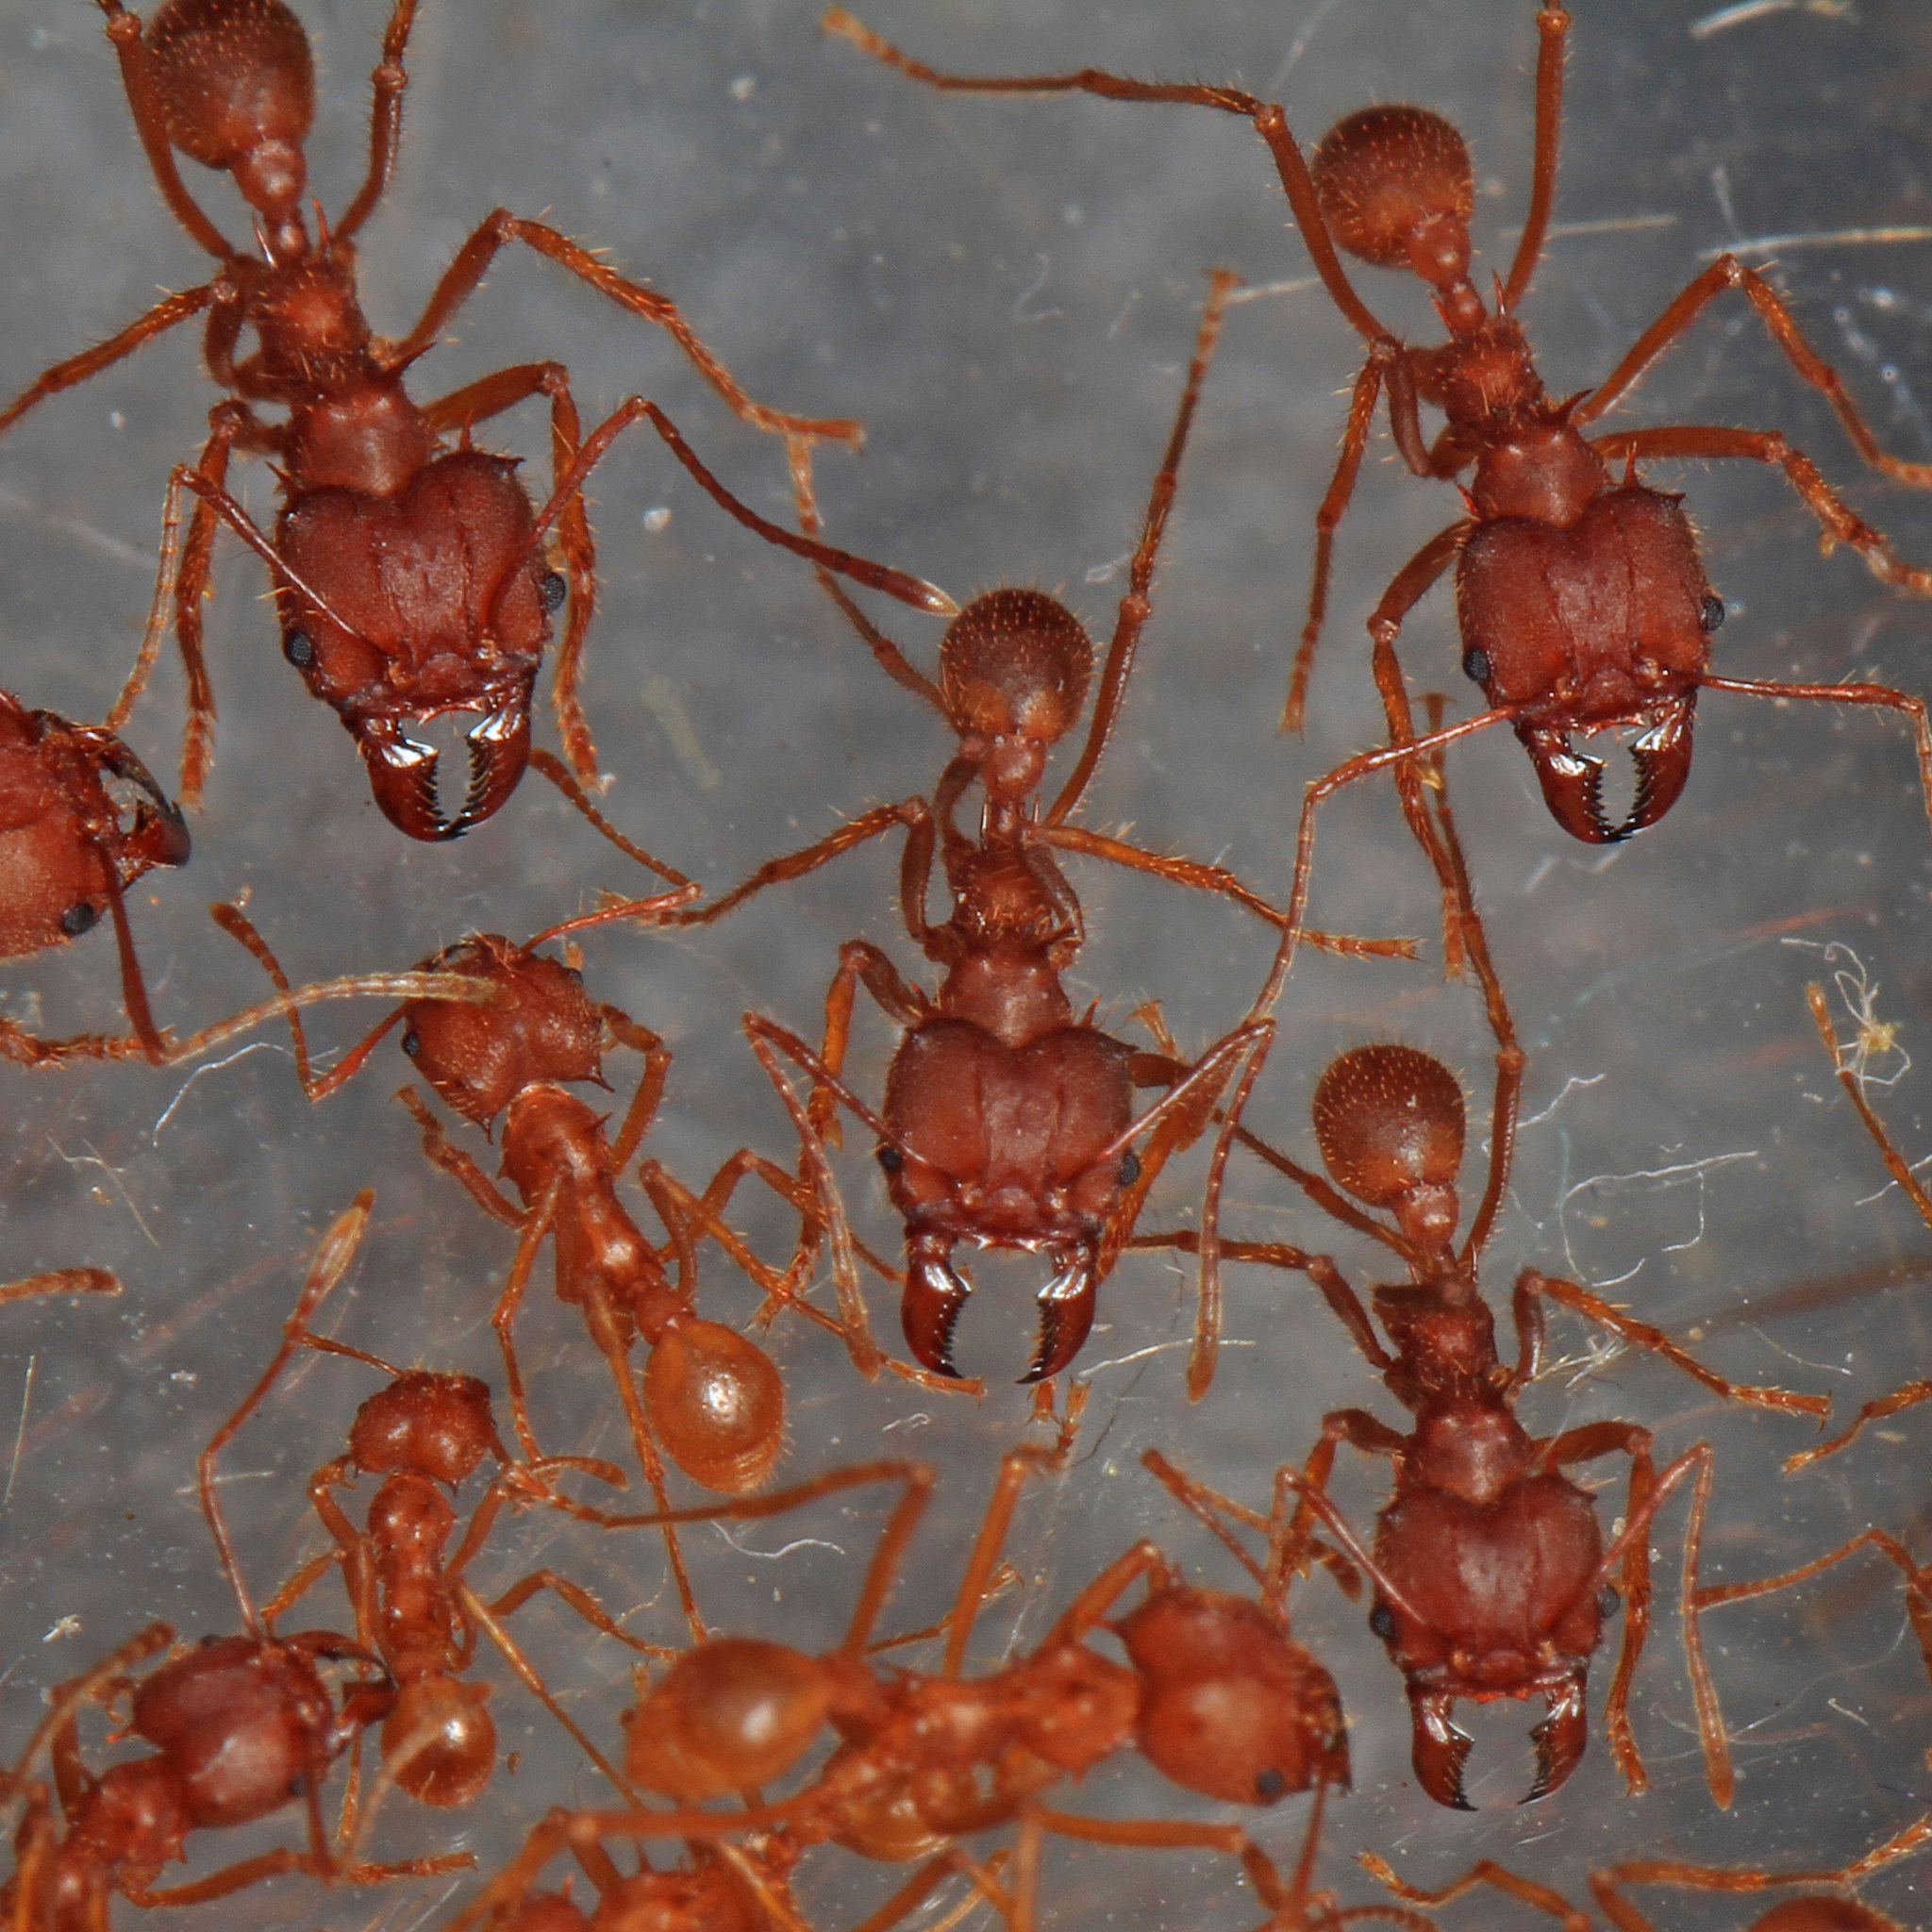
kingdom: Animalia
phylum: Arthropoda
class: Insecta
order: Hymenoptera
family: Formicidae
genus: Atta
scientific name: Atta texana
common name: Texas leafcutting ant
